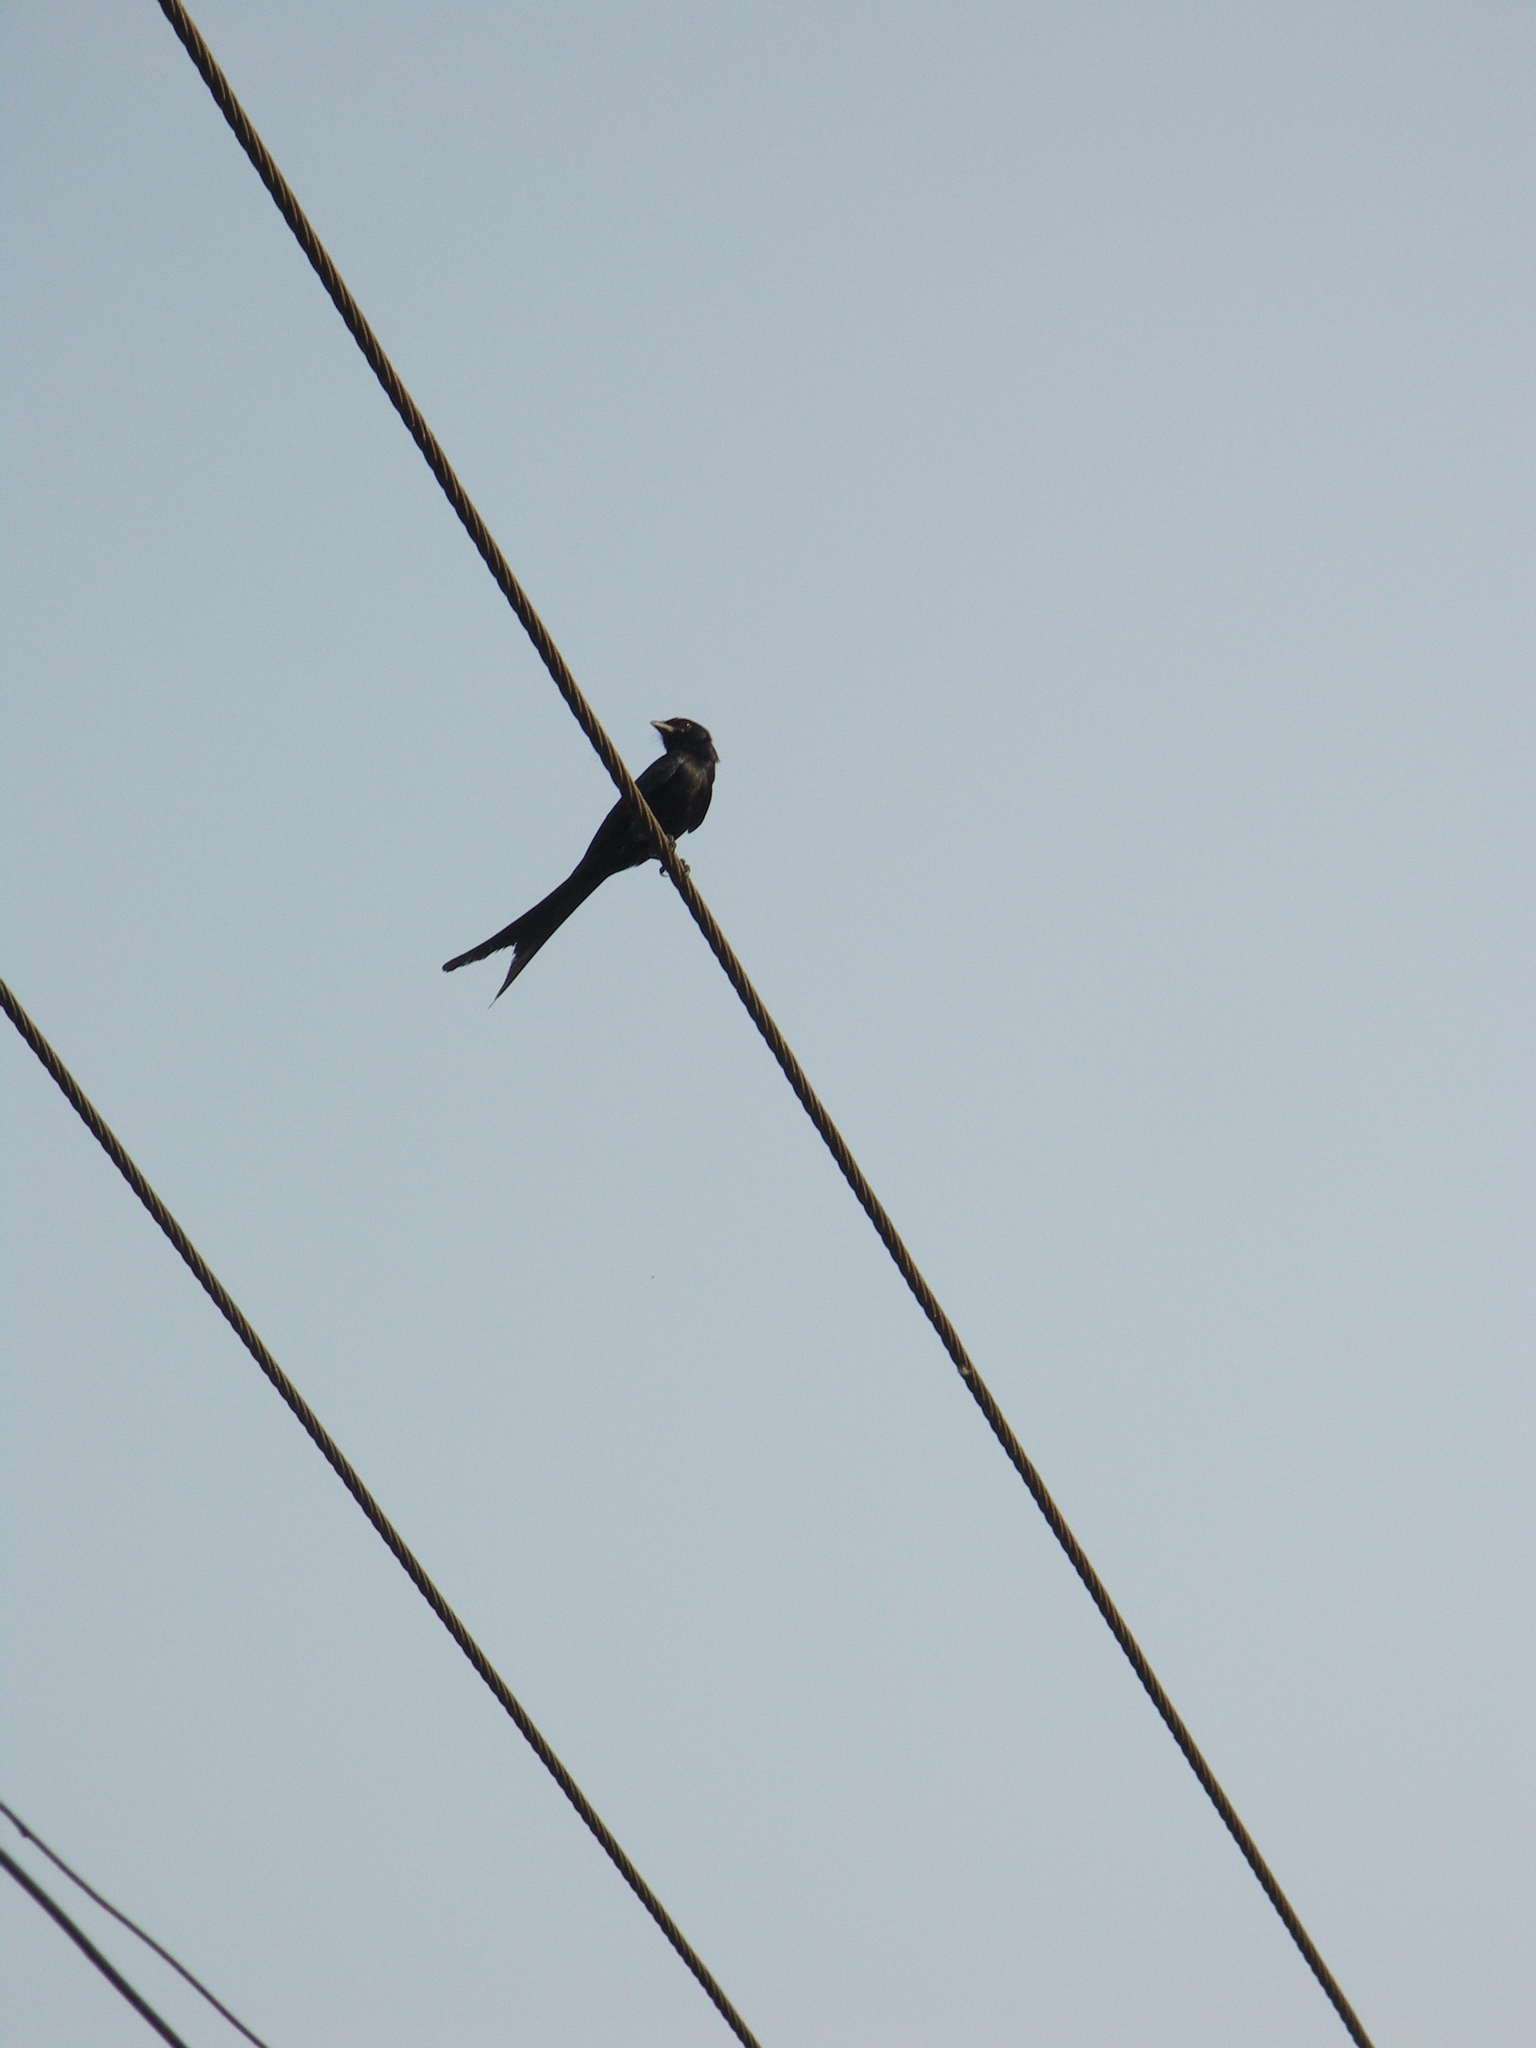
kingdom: Animalia
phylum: Chordata
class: Aves
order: Passeriformes
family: Dicruridae
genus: Dicrurus
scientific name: Dicrurus macrocercus
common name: Black drongo
